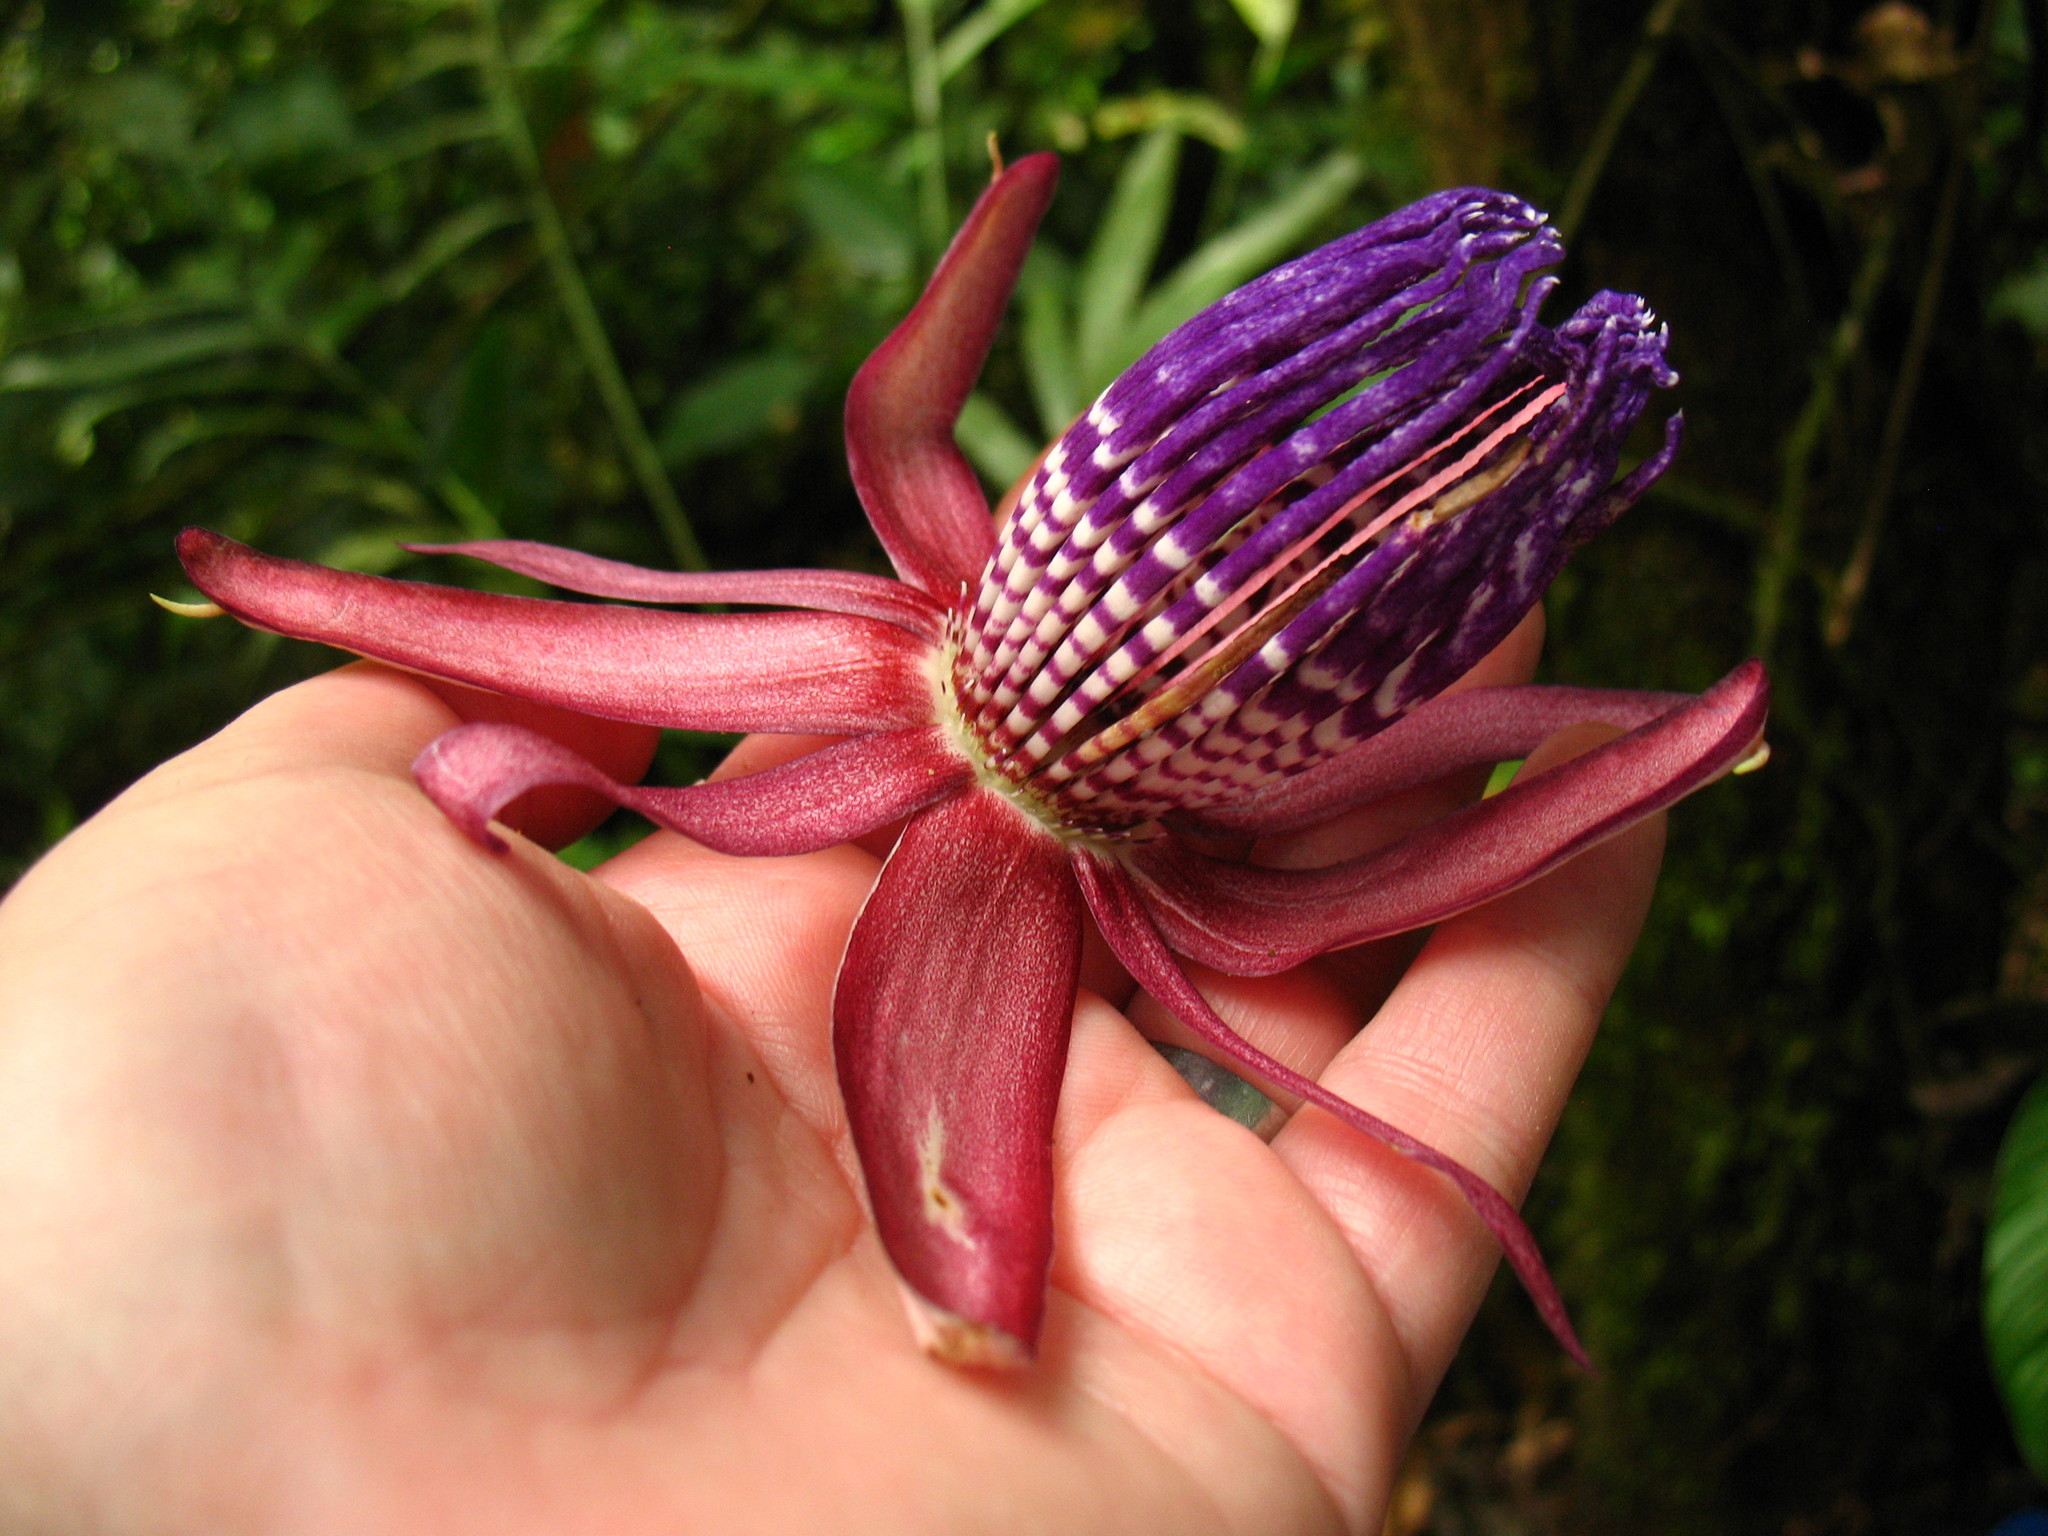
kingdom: Plantae
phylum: Tracheophyta
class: Magnoliopsida
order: Malpighiales
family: Passifloraceae
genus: Passiflora
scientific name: Passiflora ambigua
